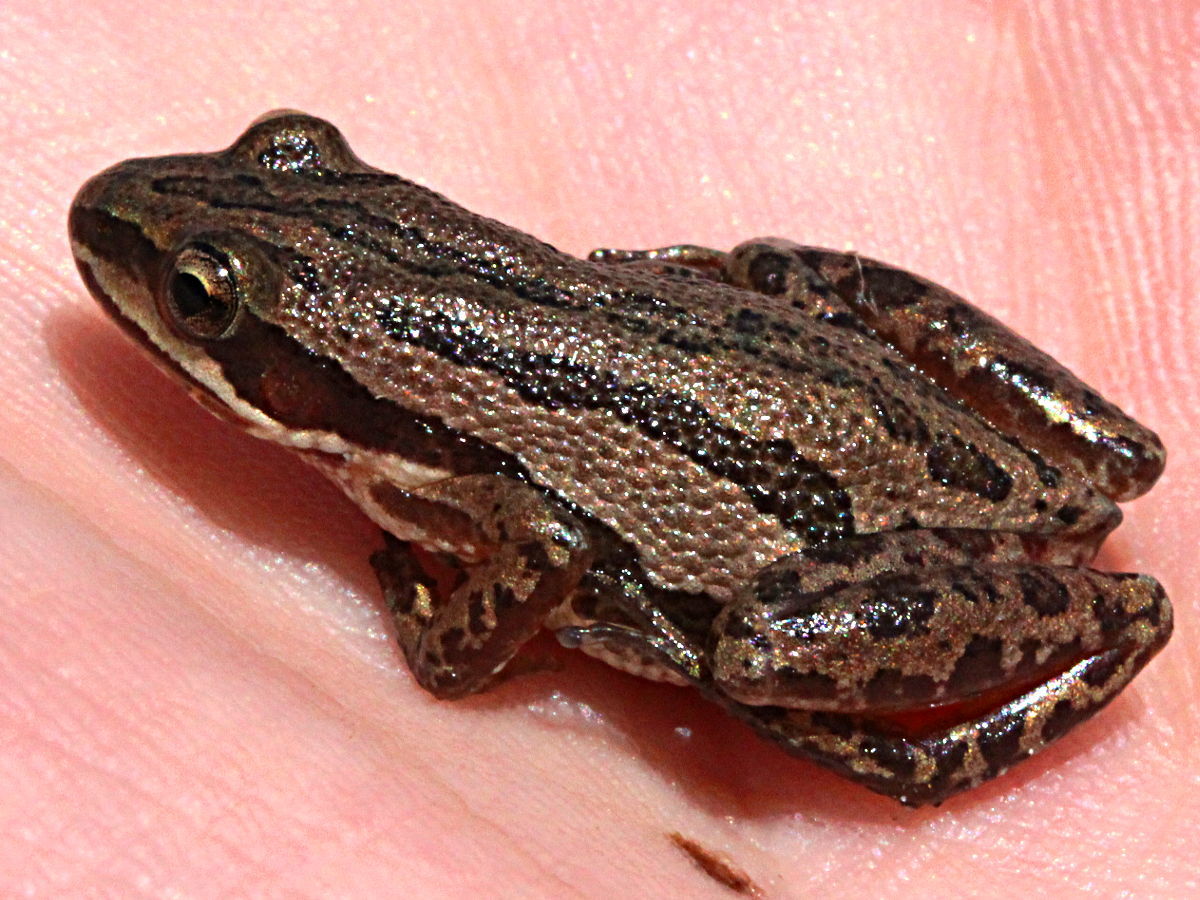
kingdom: Animalia
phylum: Chordata
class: Amphibia
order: Anura
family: Hylidae
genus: Pseudacris
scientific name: Pseudacris maculata
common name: Boreal chorus frog
